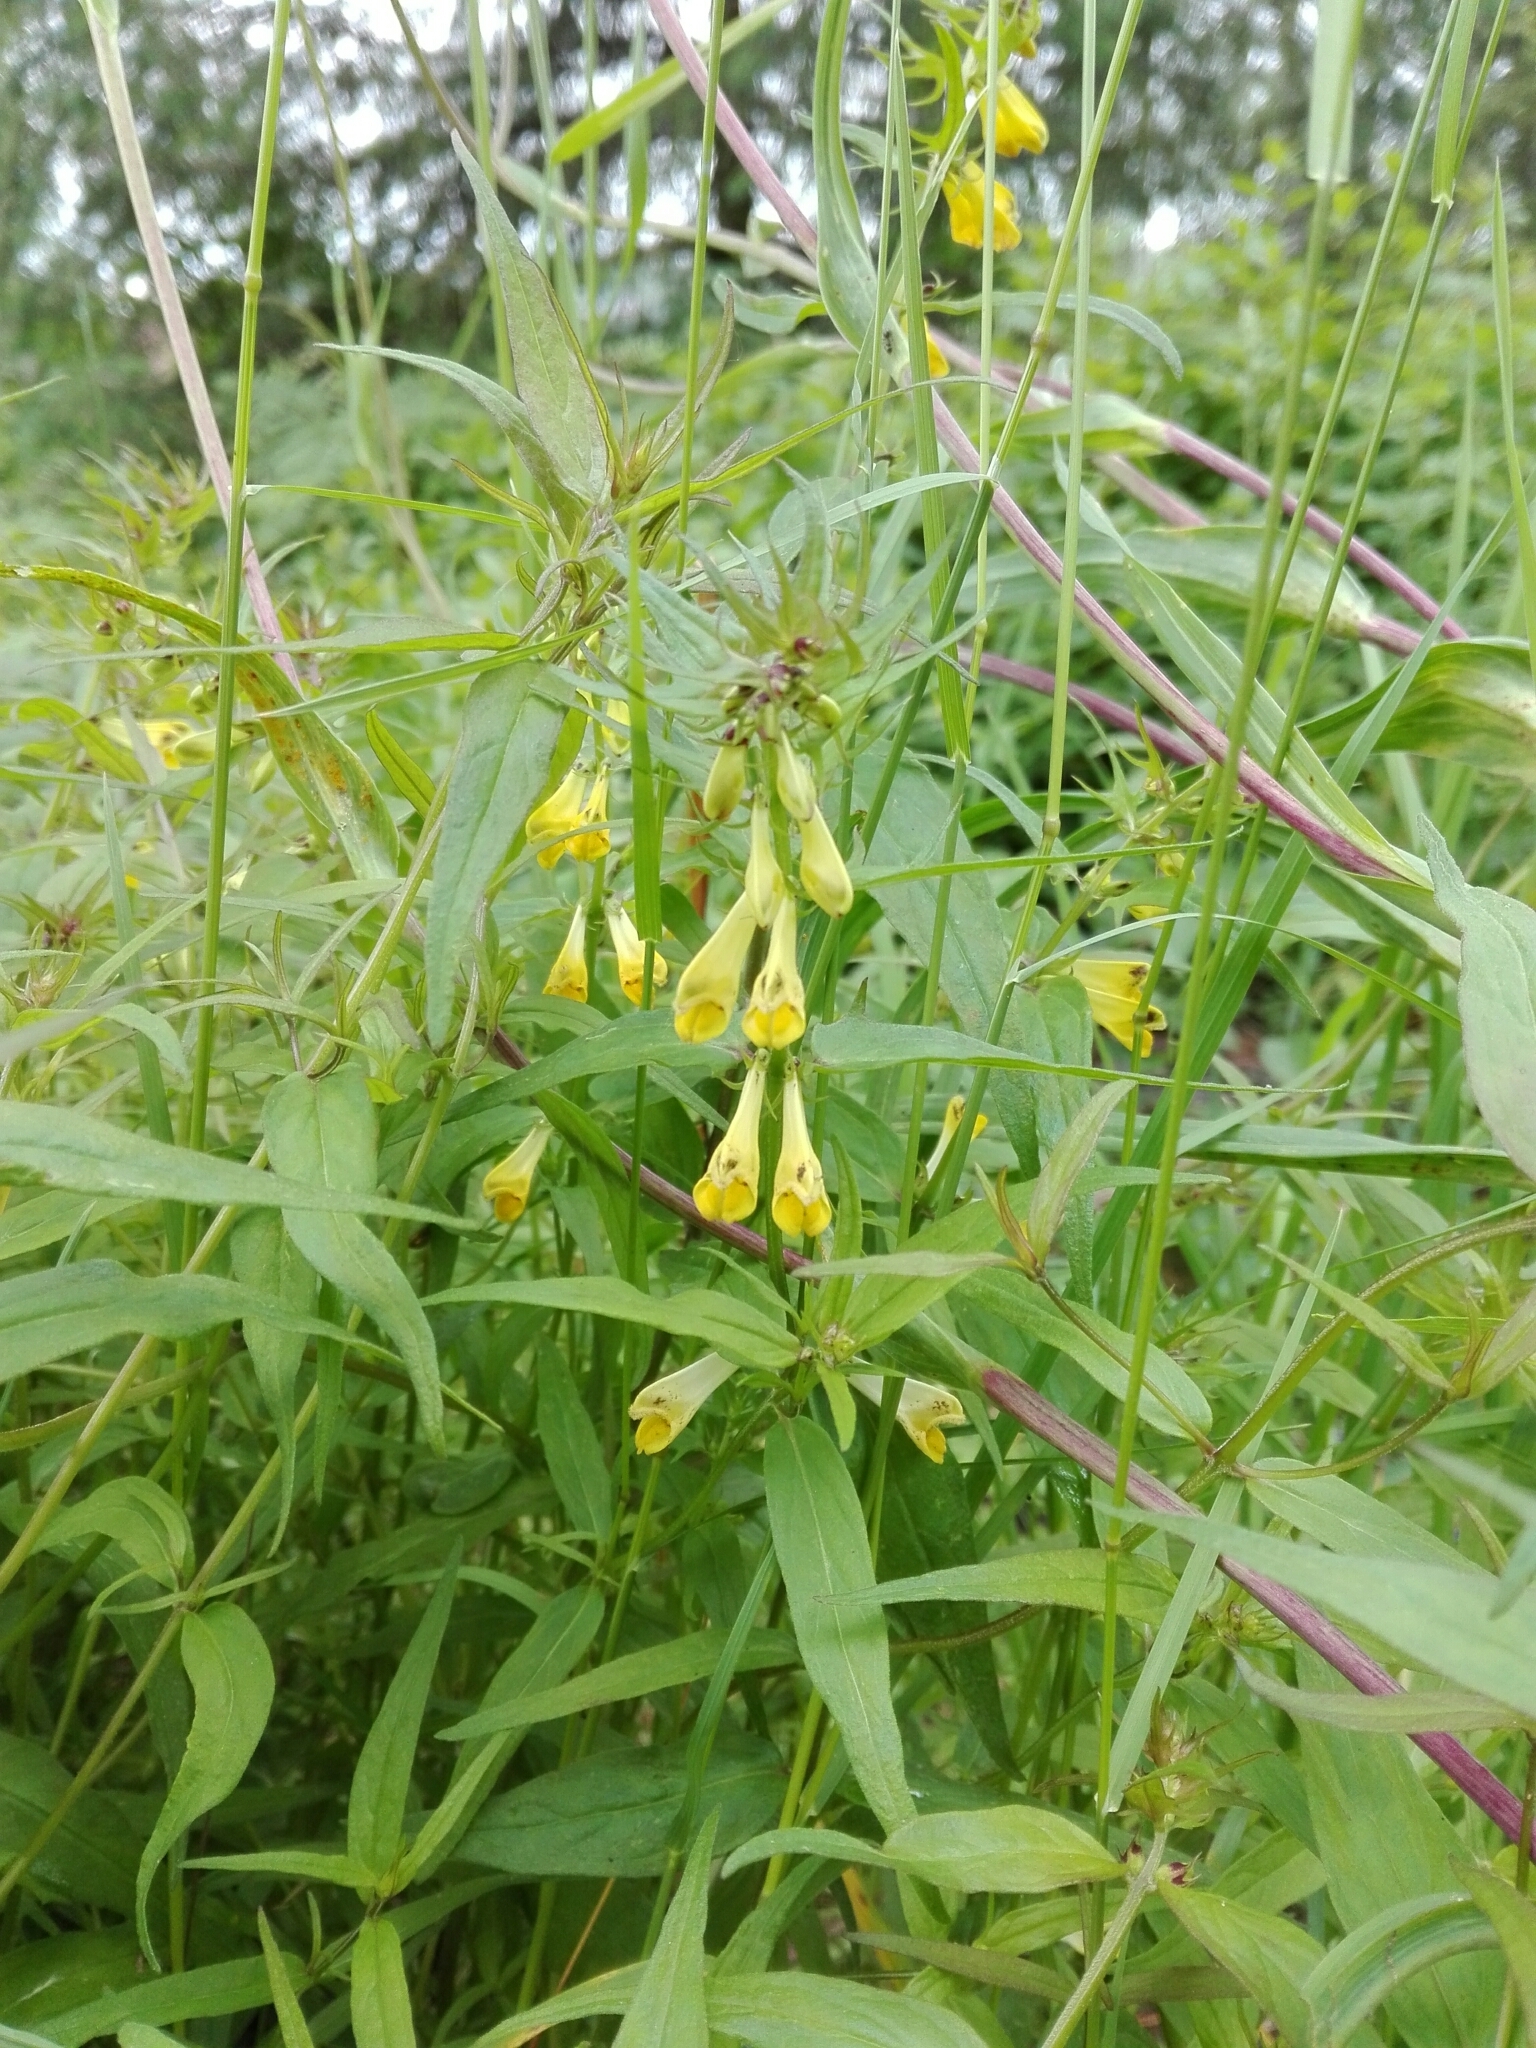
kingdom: Plantae
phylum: Tracheophyta
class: Magnoliopsida
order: Lamiales
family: Orobanchaceae
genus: Melampyrum
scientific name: Melampyrum pratense
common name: Common cow-wheat
